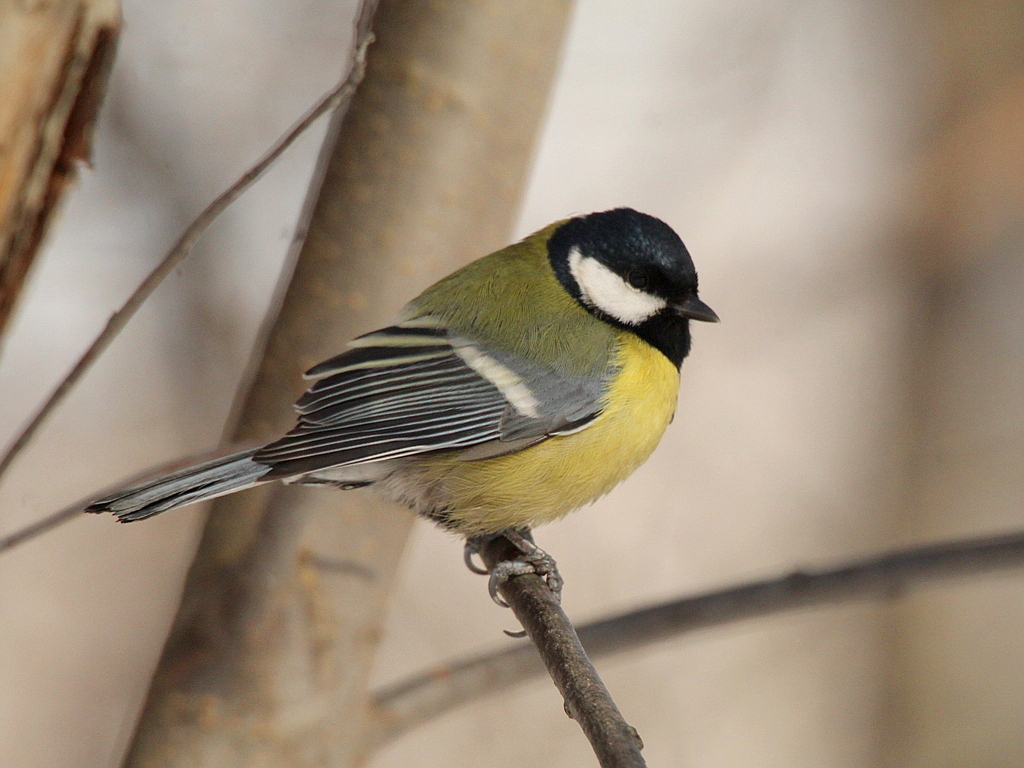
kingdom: Animalia
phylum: Chordata
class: Aves
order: Passeriformes
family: Paridae
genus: Parus
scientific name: Parus major
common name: Great tit
